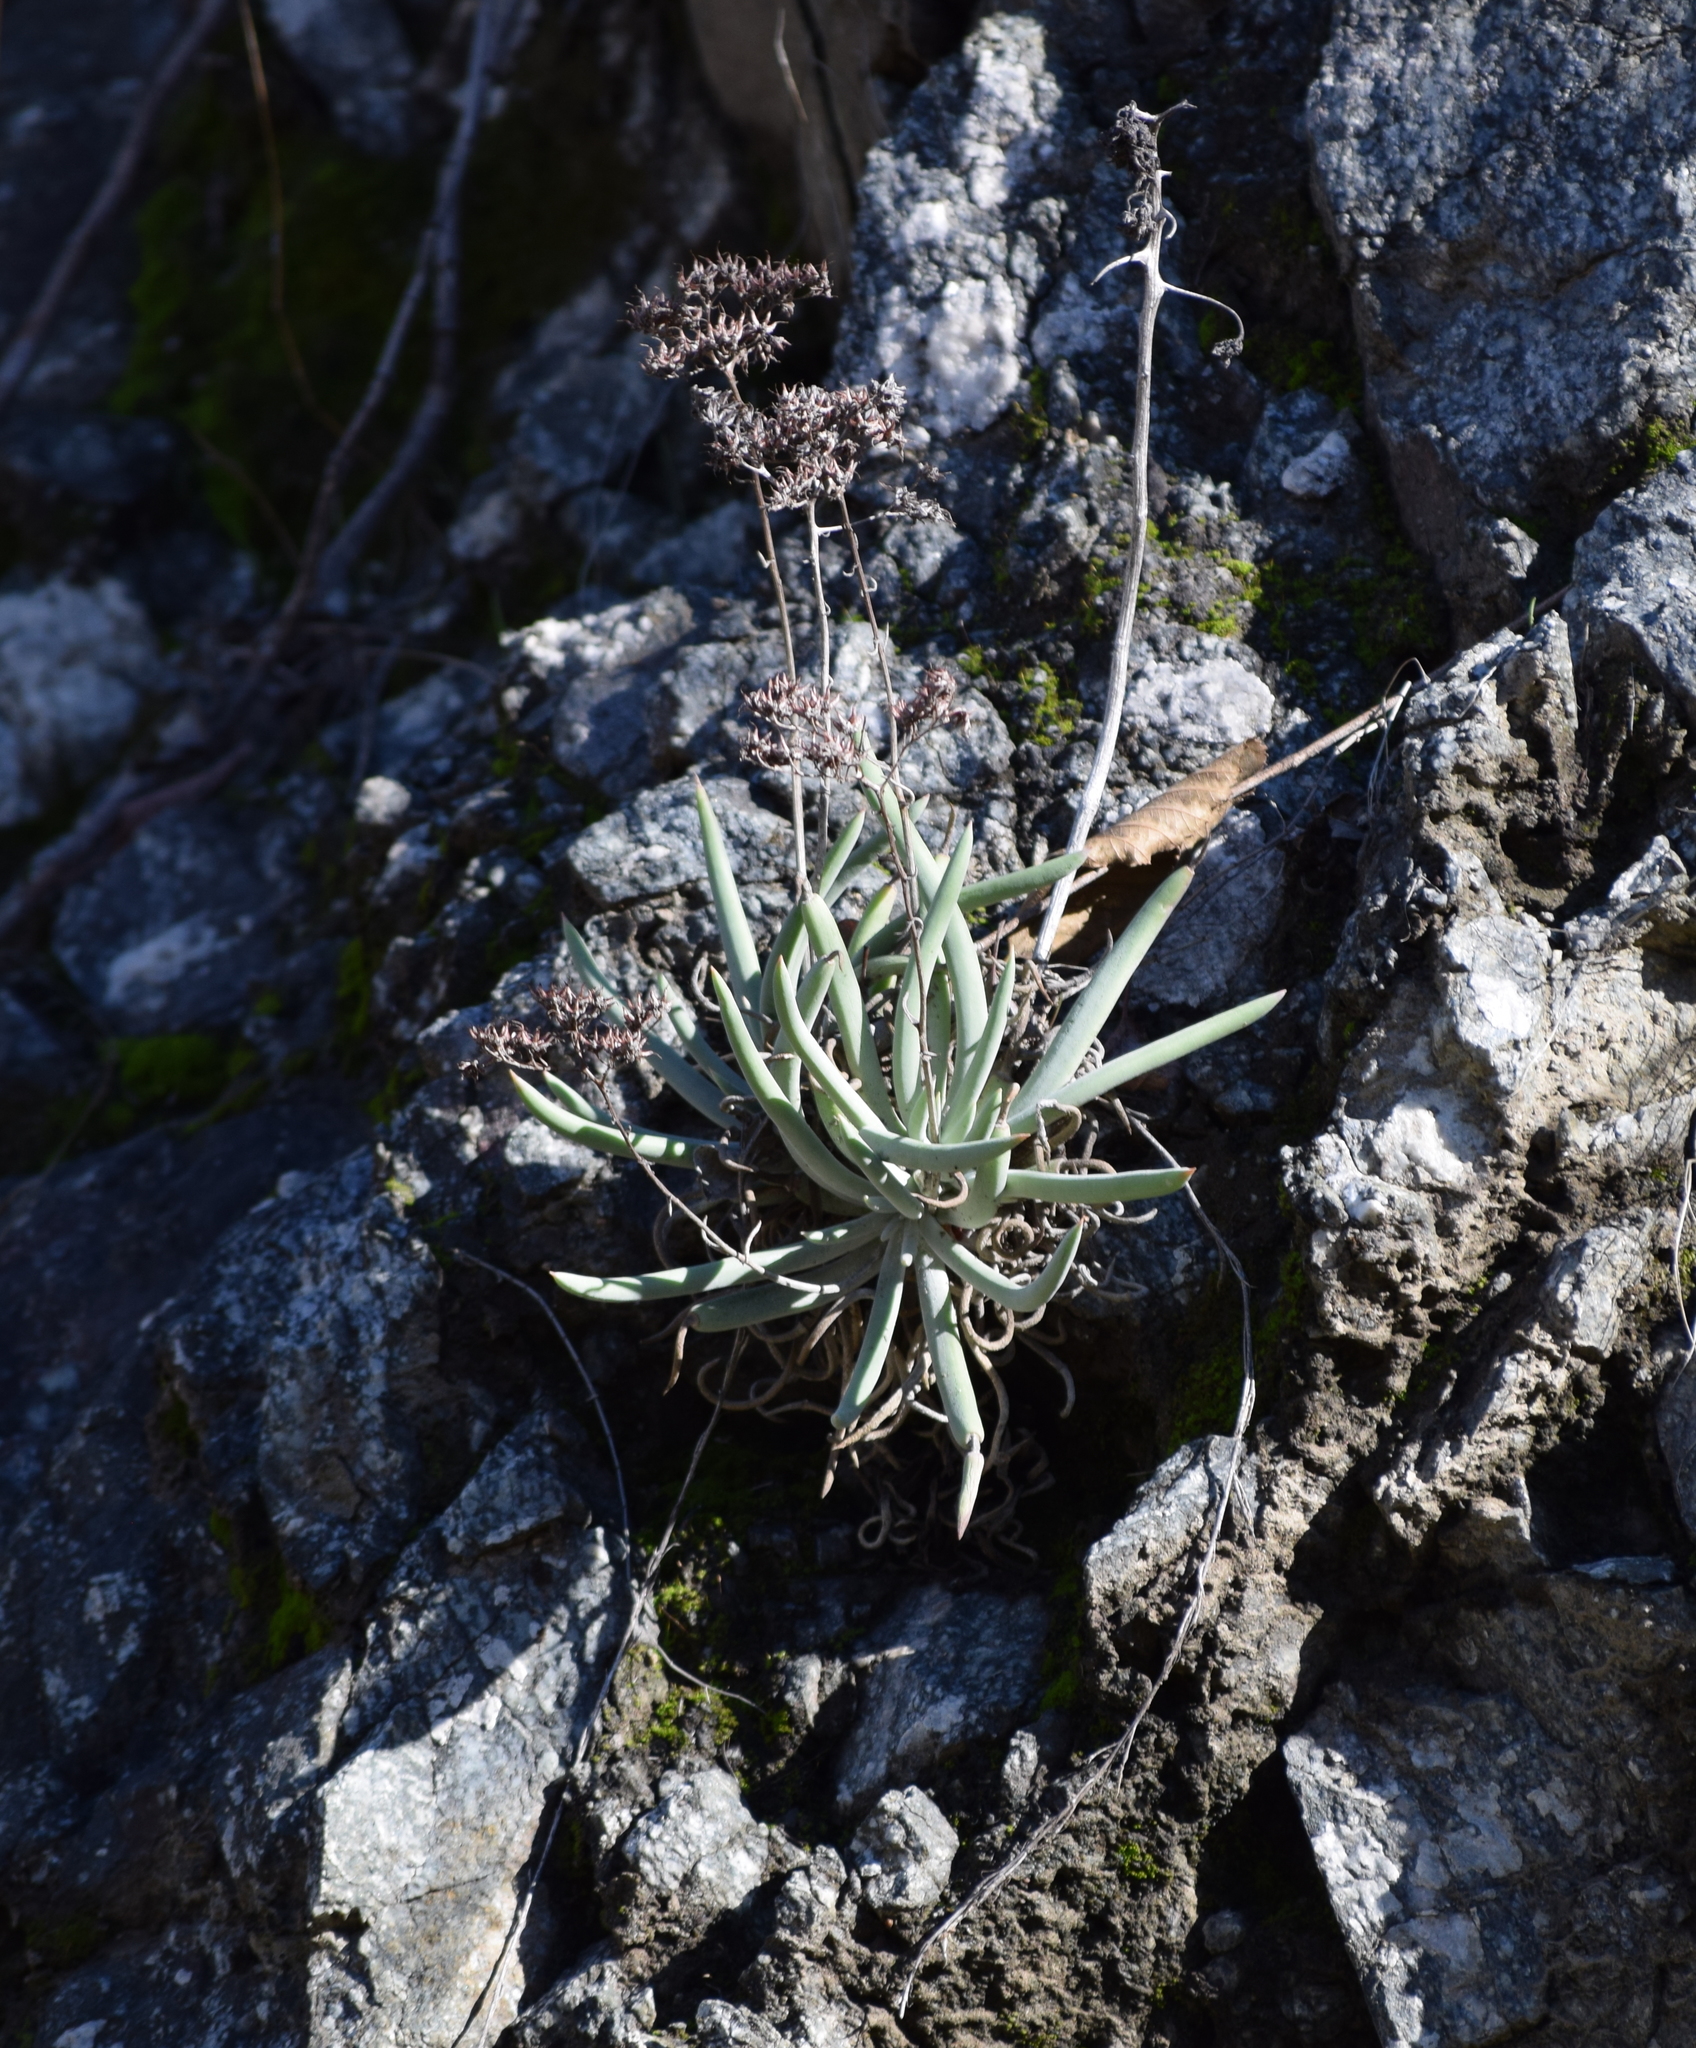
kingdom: Plantae
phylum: Tracheophyta
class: Magnoliopsida
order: Saxifragales
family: Crassulaceae
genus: Dudleya
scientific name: Dudleya densiflora
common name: San gabriel mountains dudleya
